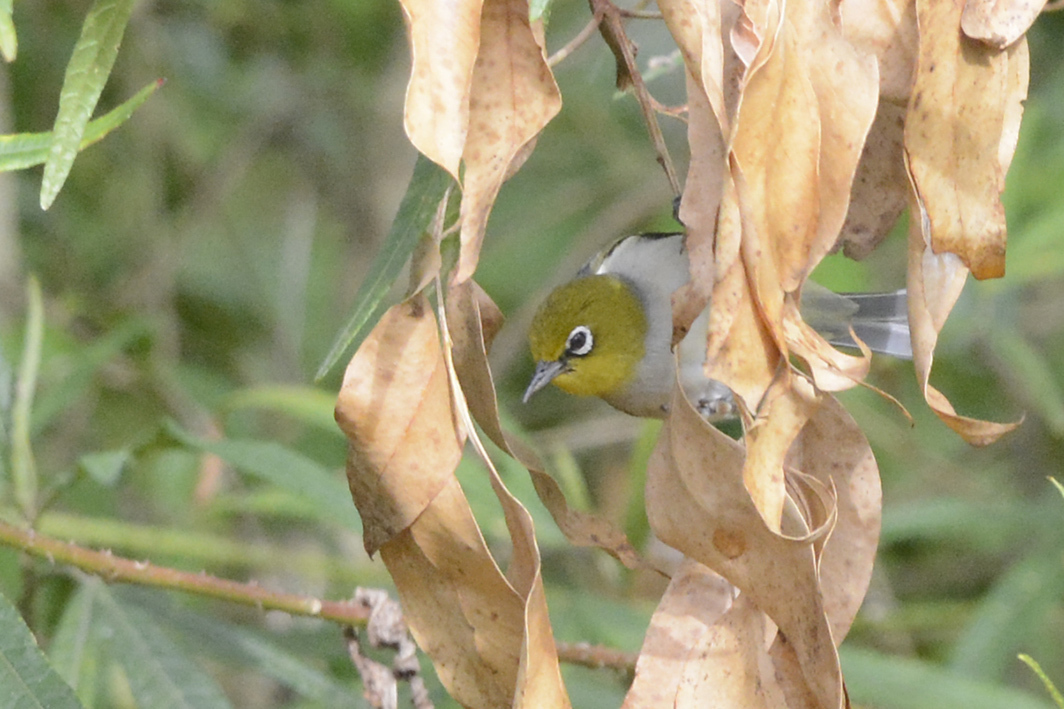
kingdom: Animalia
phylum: Chordata
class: Aves
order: Passeriformes
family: Zosteropidae
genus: Zosterops
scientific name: Zosterops lateralis
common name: Silvereye
